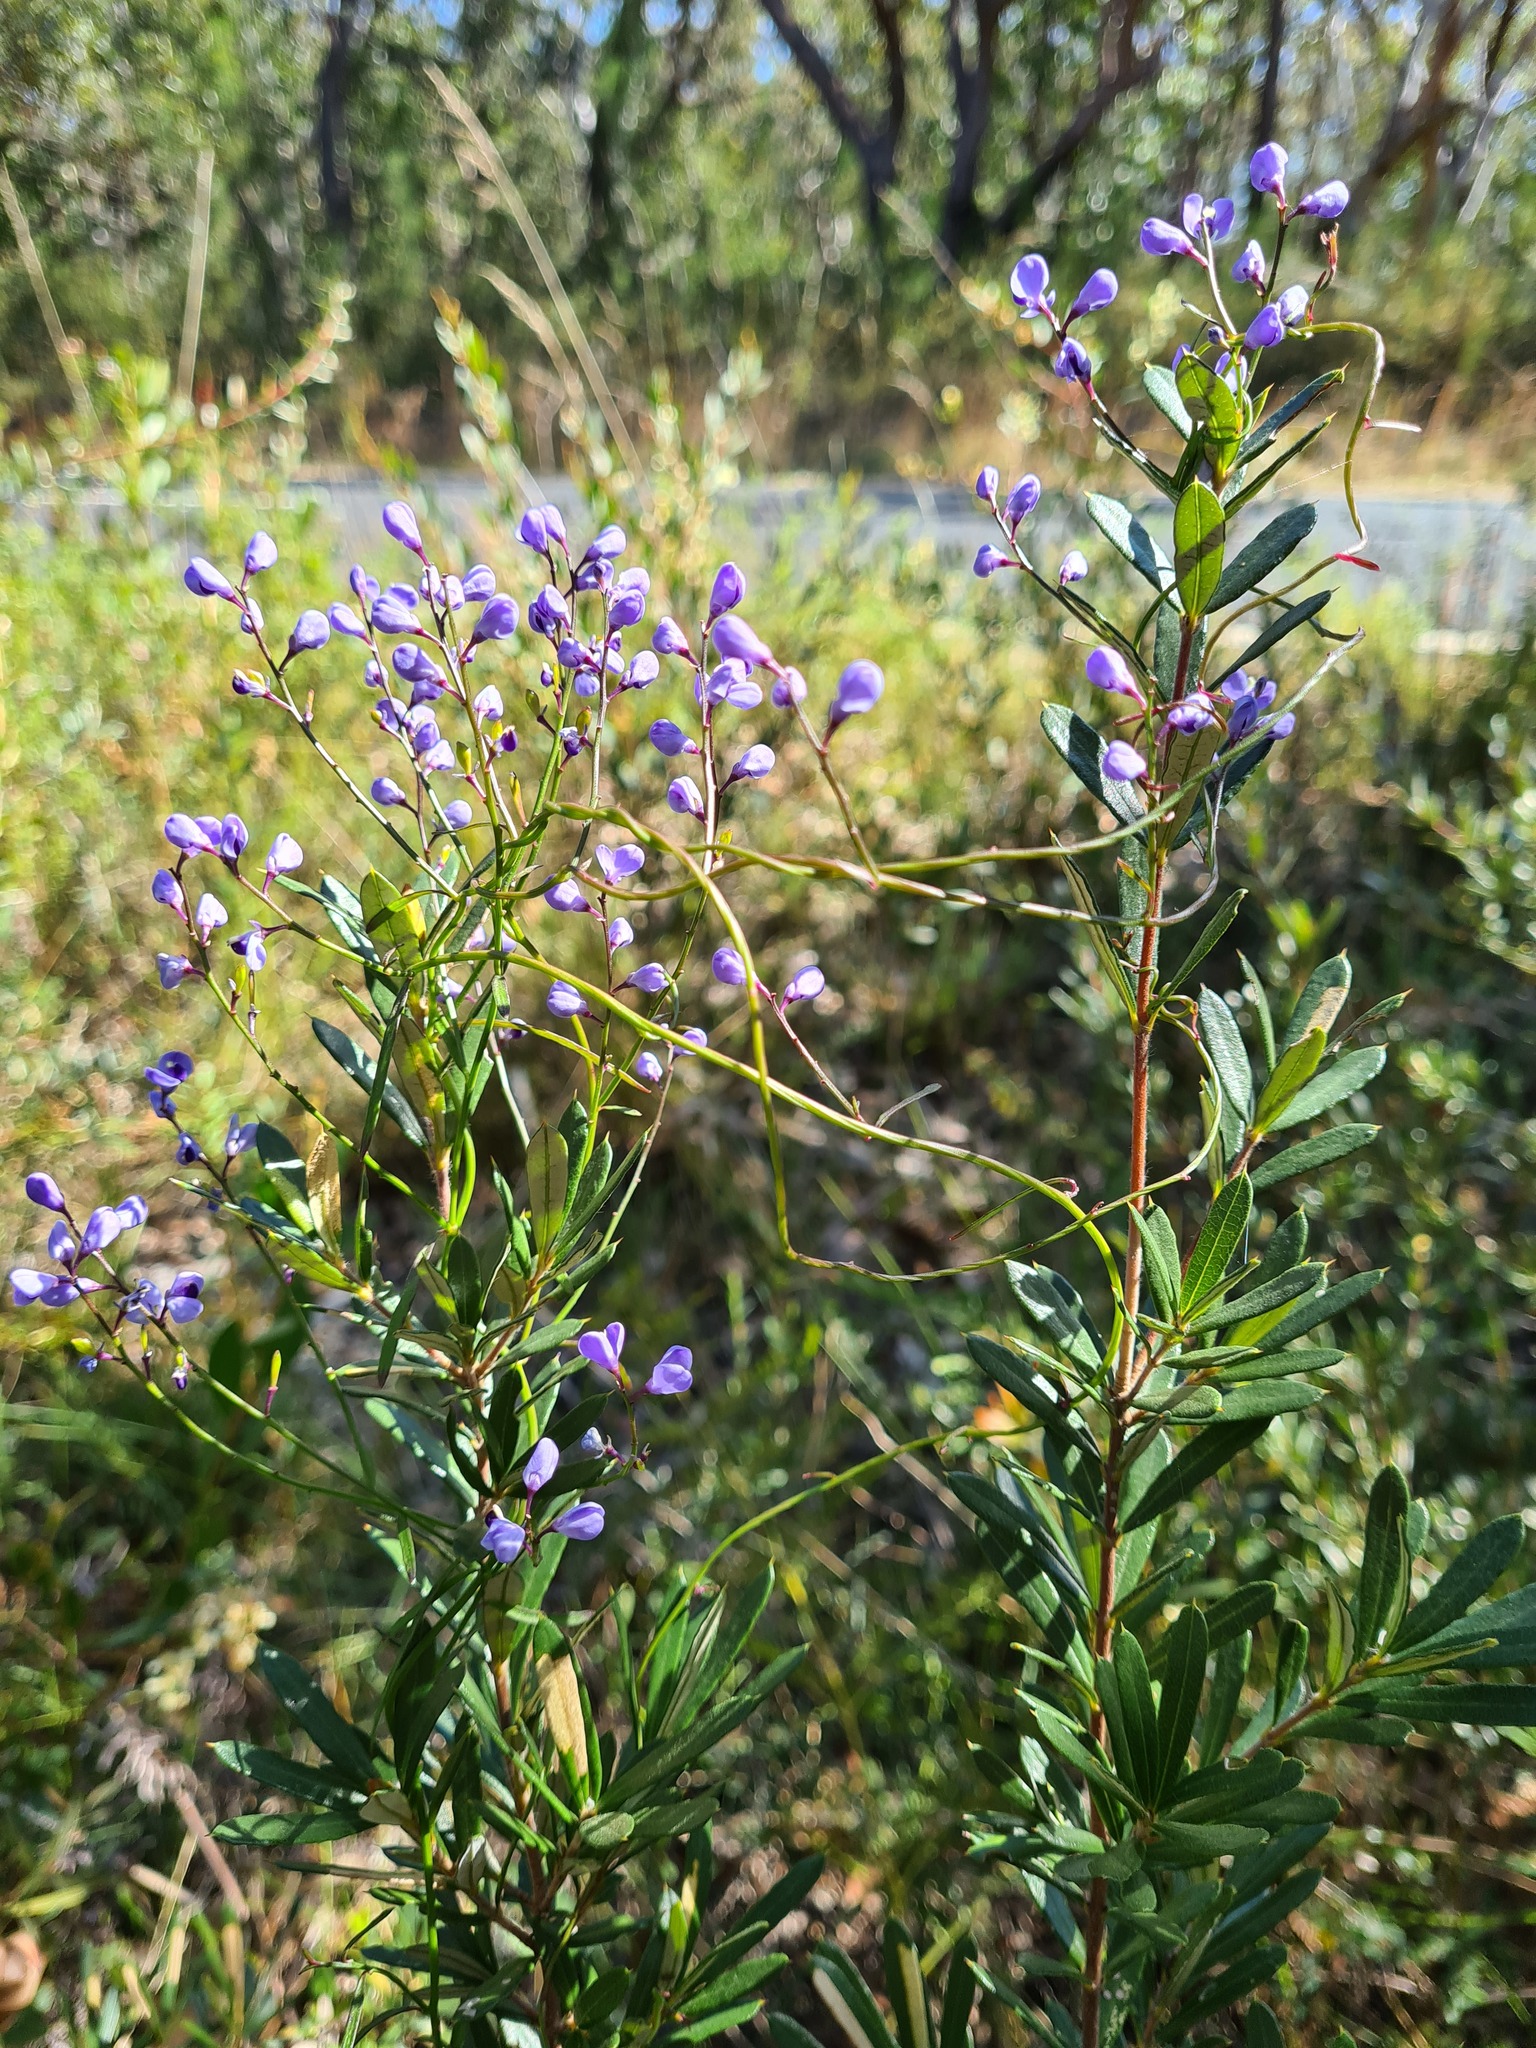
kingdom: Plantae
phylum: Tracheophyta
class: Magnoliopsida
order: Fabales
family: Polygalaceae
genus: Comesperma
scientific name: Comesperma volubile
